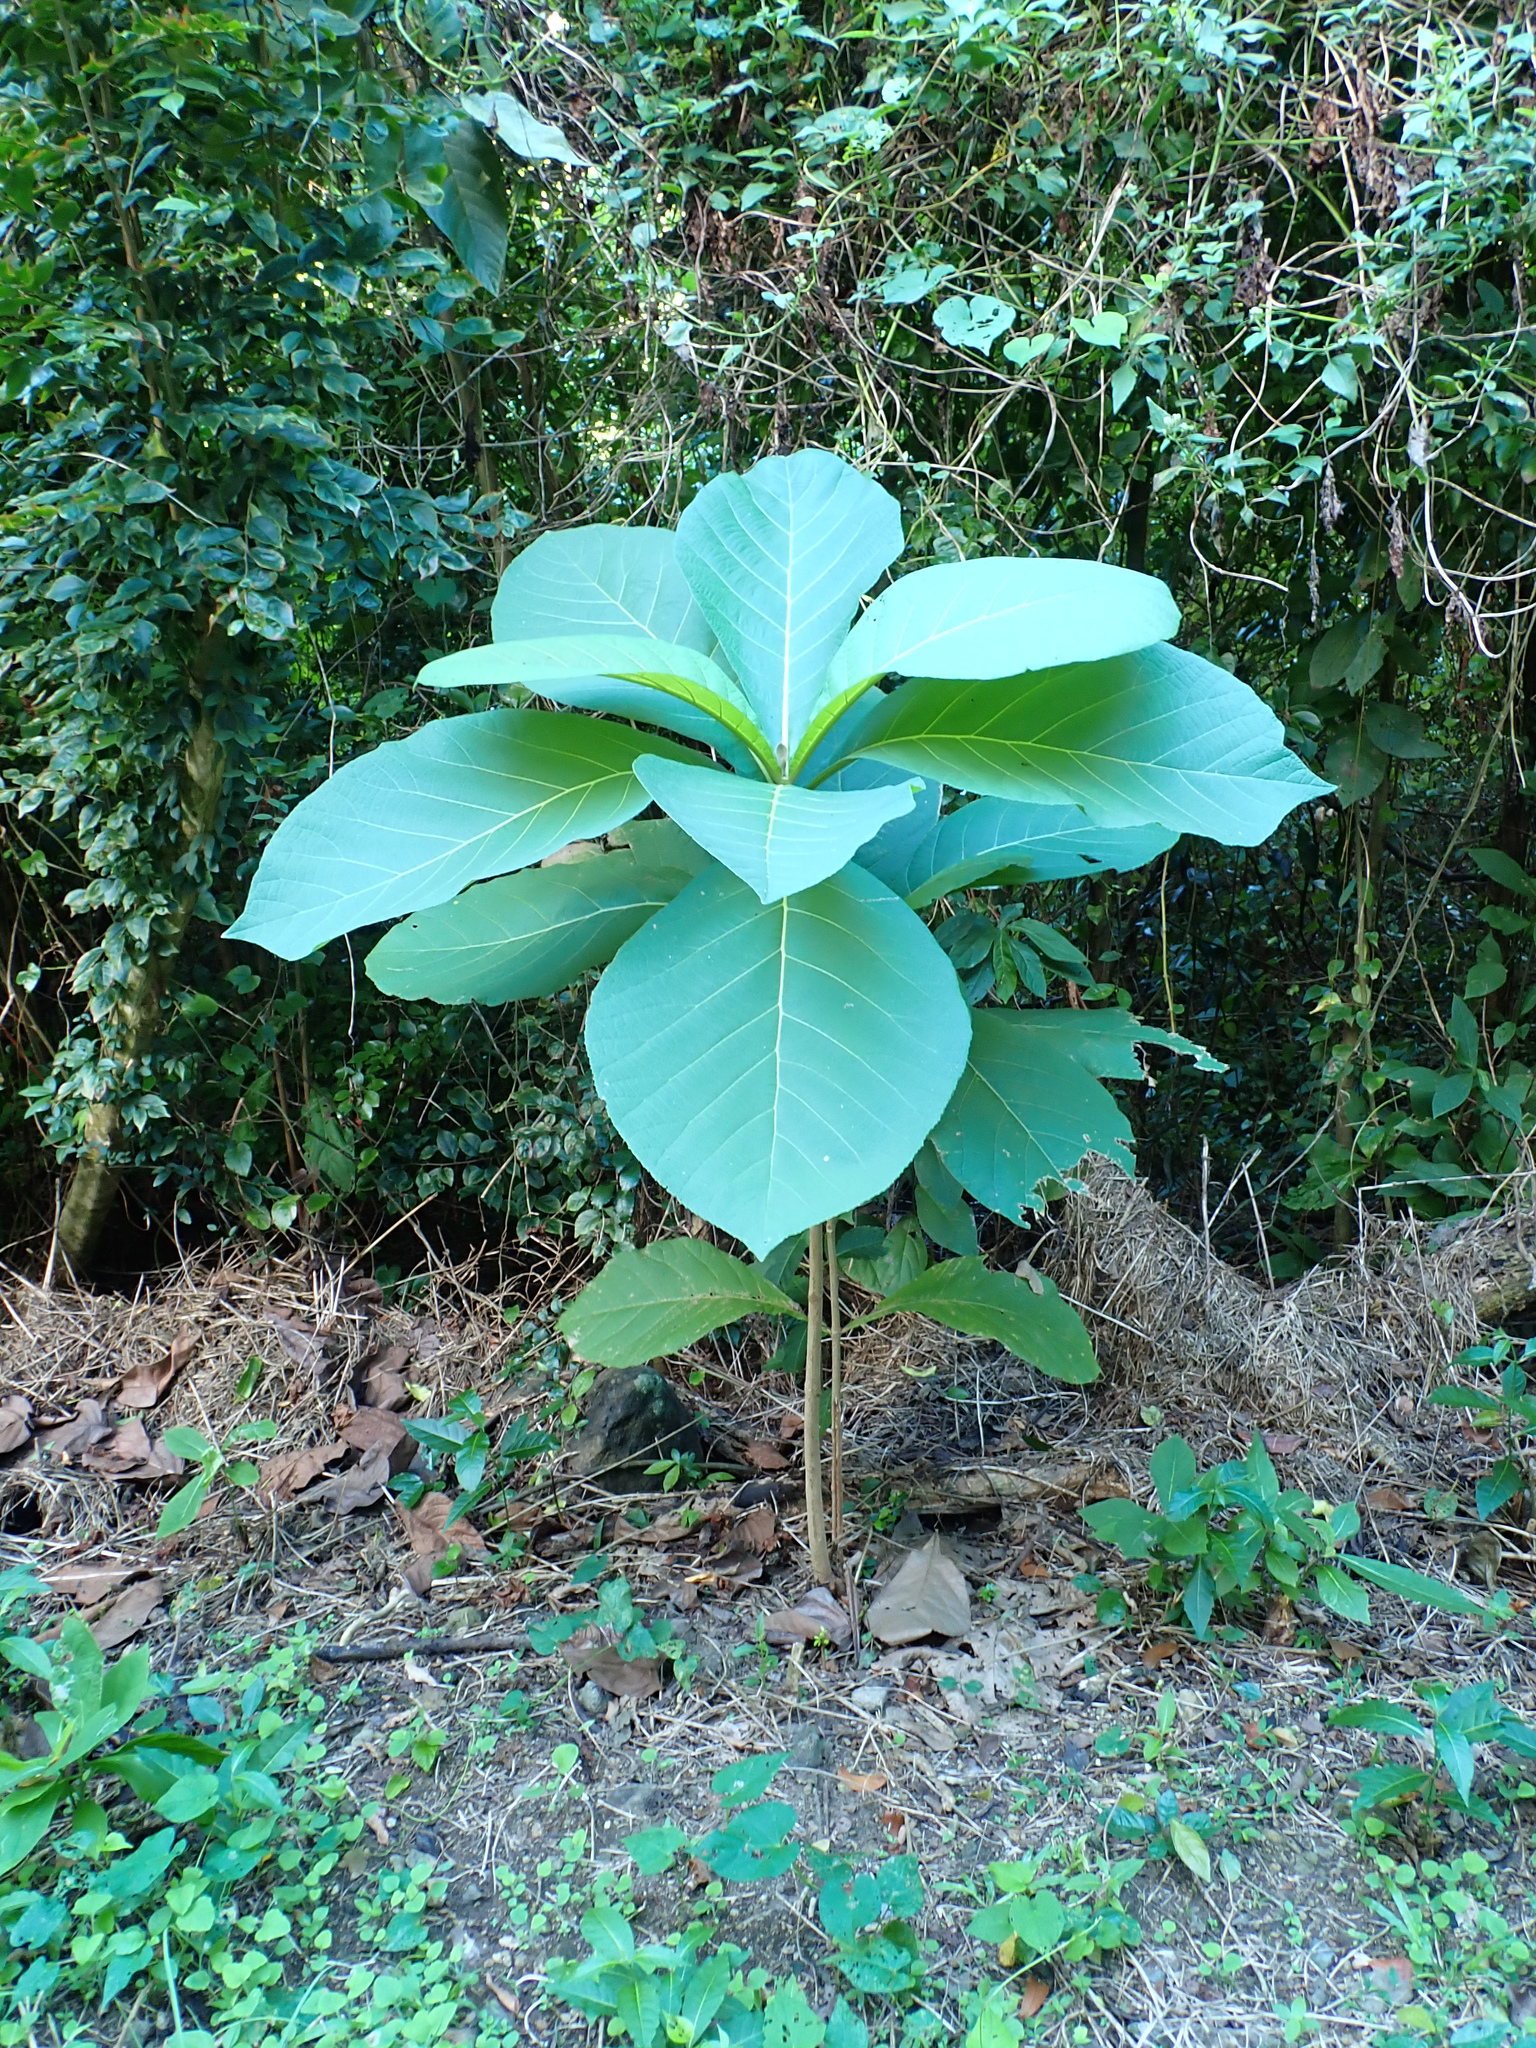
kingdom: Plantae
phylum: Tracheophyta
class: Magnoliopsida
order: Lamiales
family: Lamiaceae
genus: Tectona
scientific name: Tectona grandis
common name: Teak
